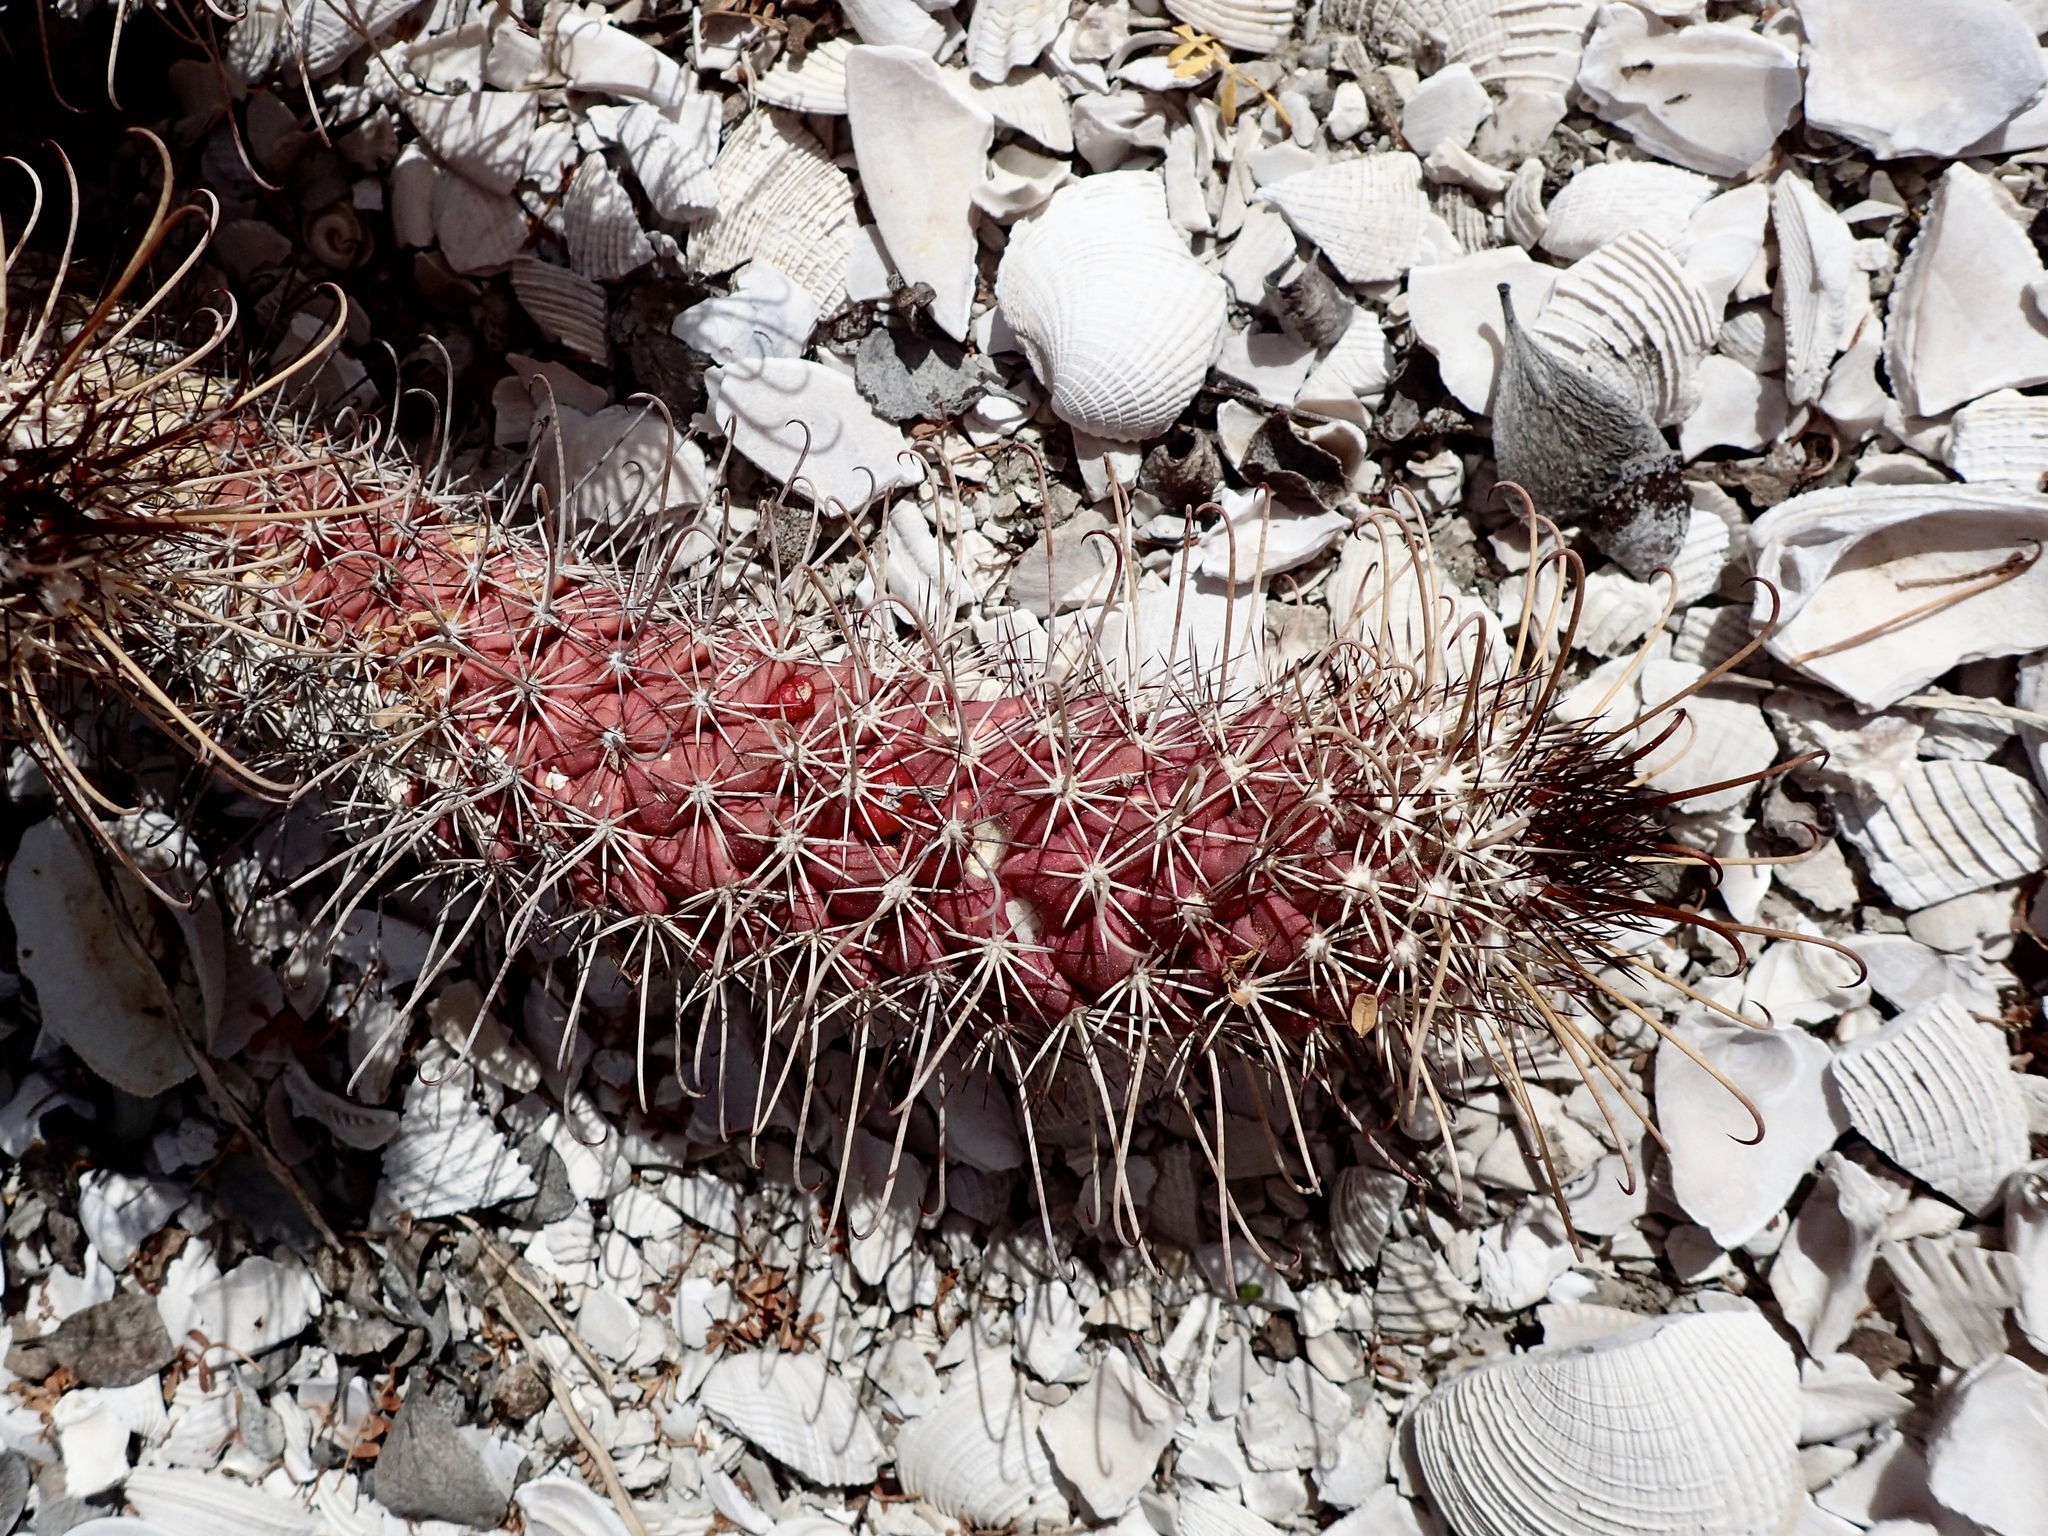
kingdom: Plantae
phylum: Tracheophyta
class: Magnoliopsida
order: Caryophyllales
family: Cactaceae
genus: Cochemiea
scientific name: Cochemiea poselgeri
